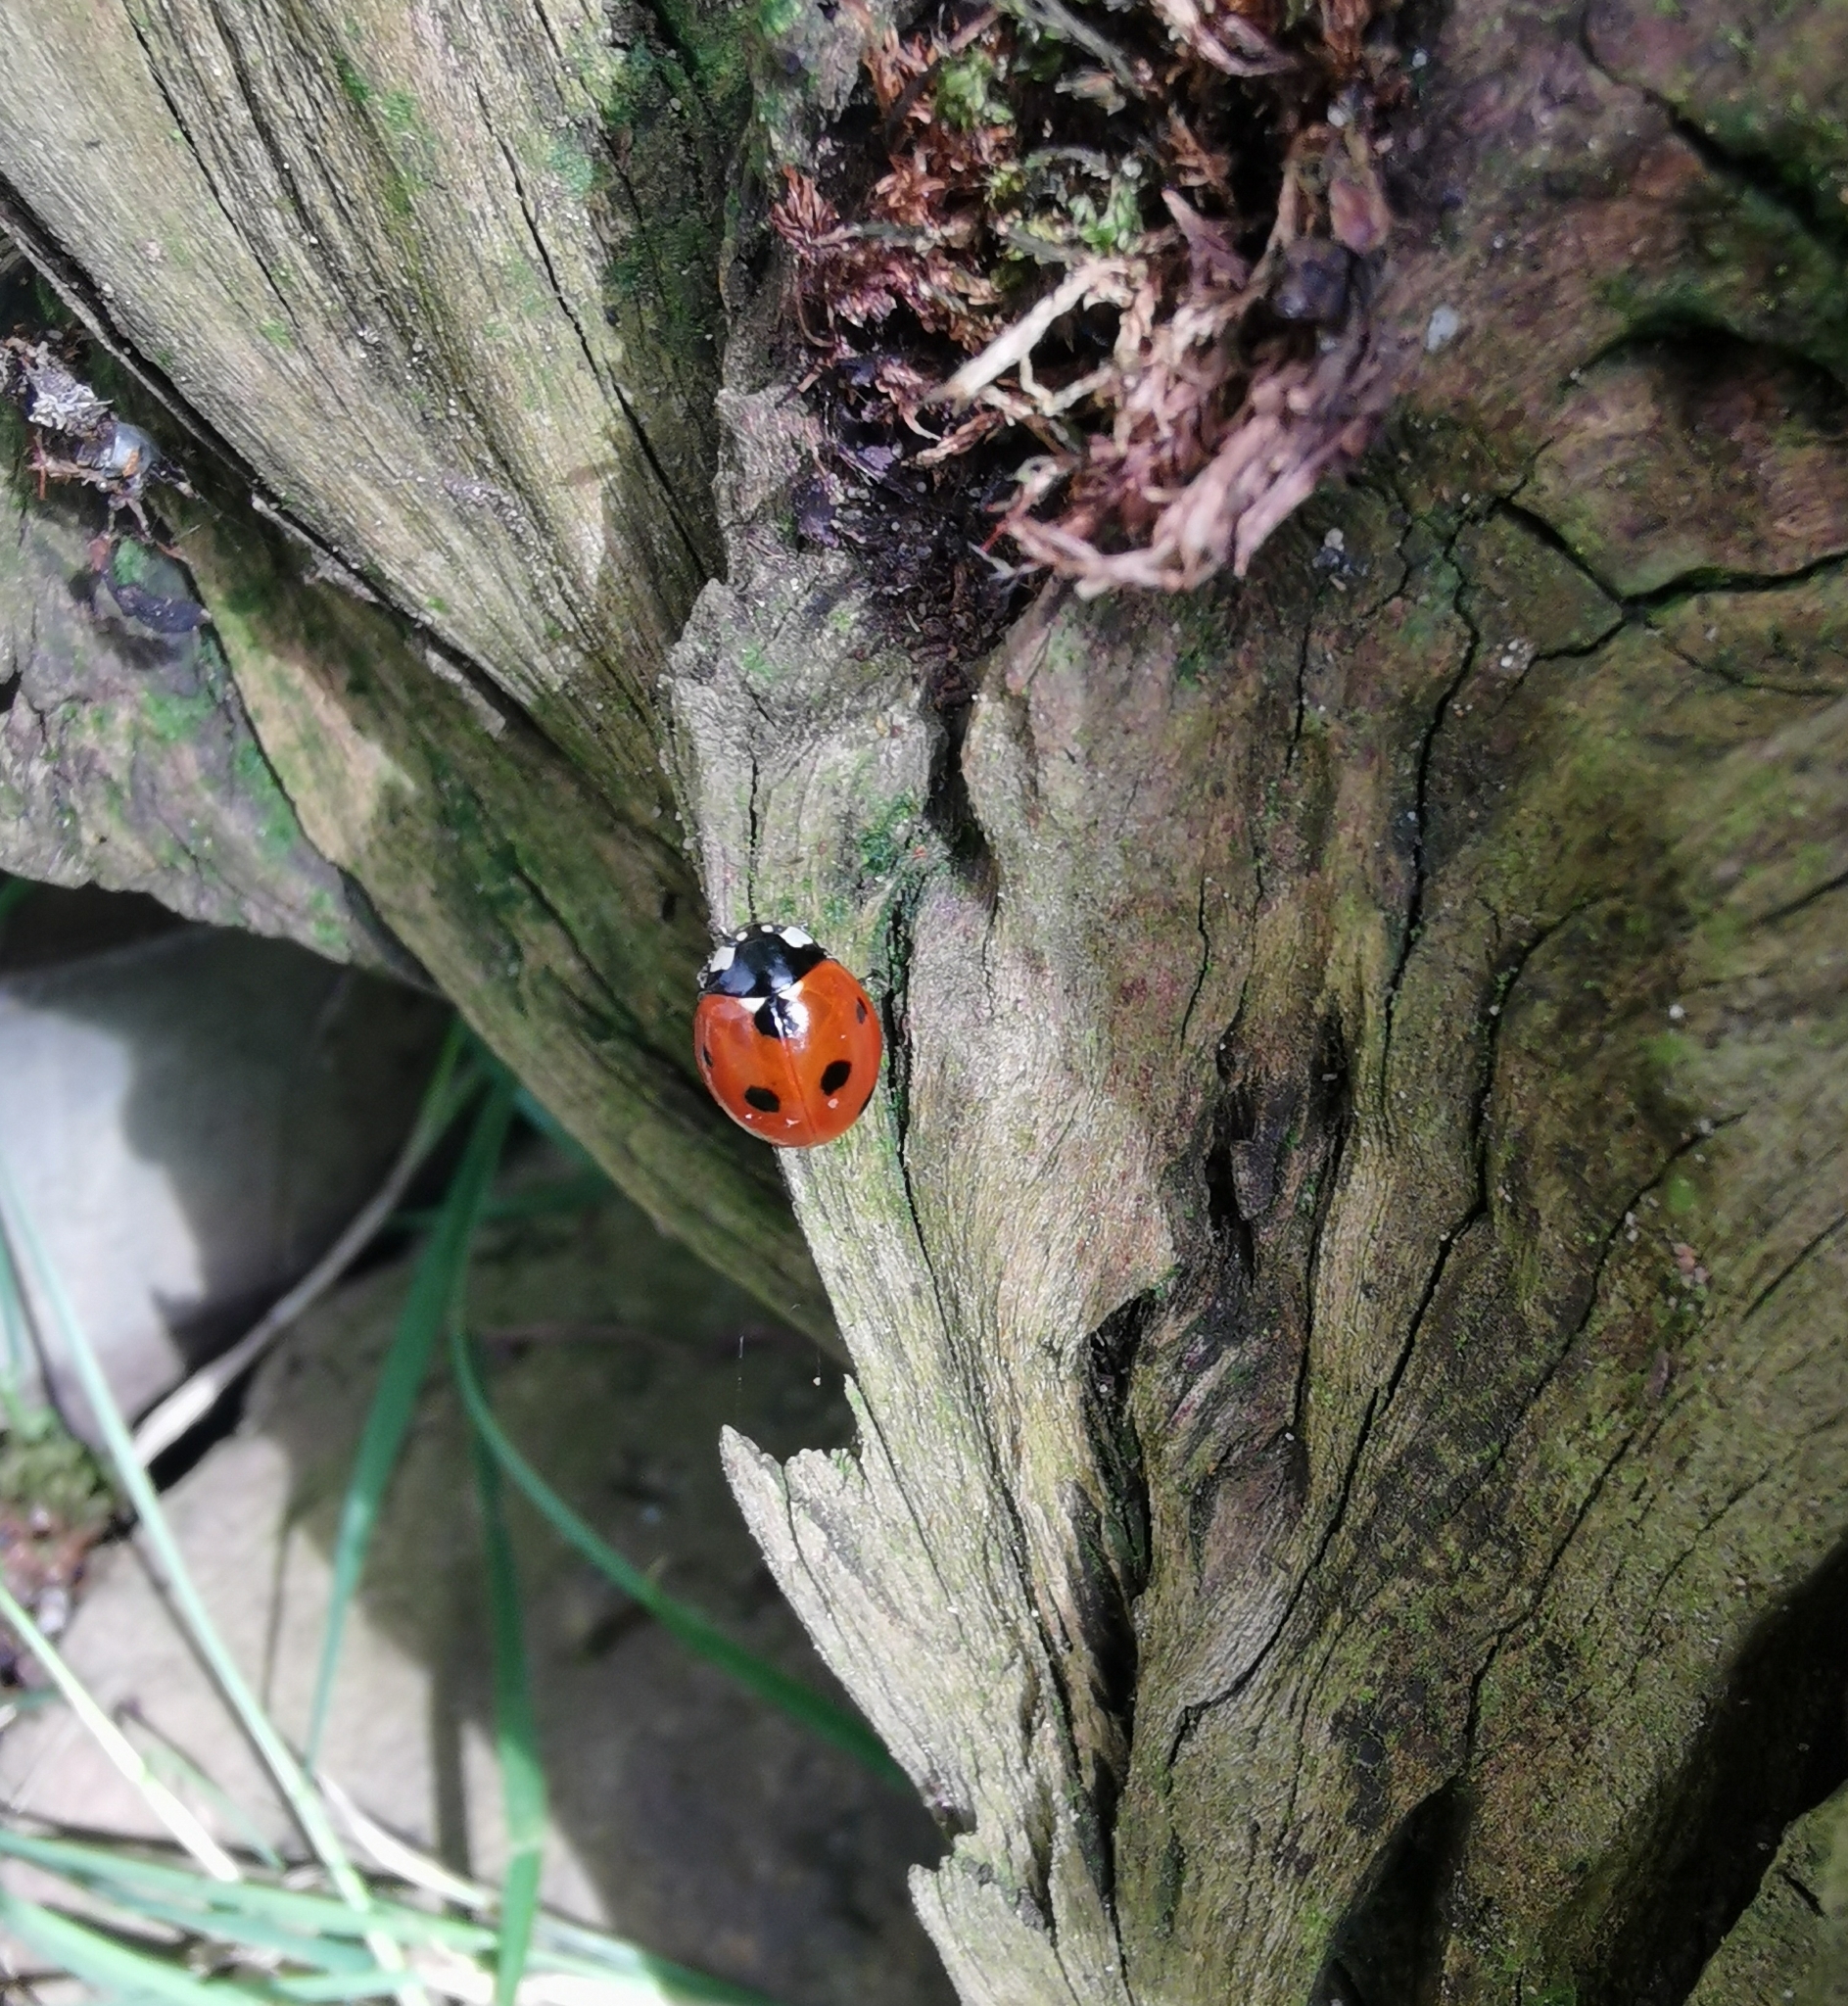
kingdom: Animalia
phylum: Arthropoda
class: Insecta
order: Coleoptera
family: Coccinellidae
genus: Coccinella
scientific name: Coccinella septempunctata
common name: Sevenspotted lady beetle
